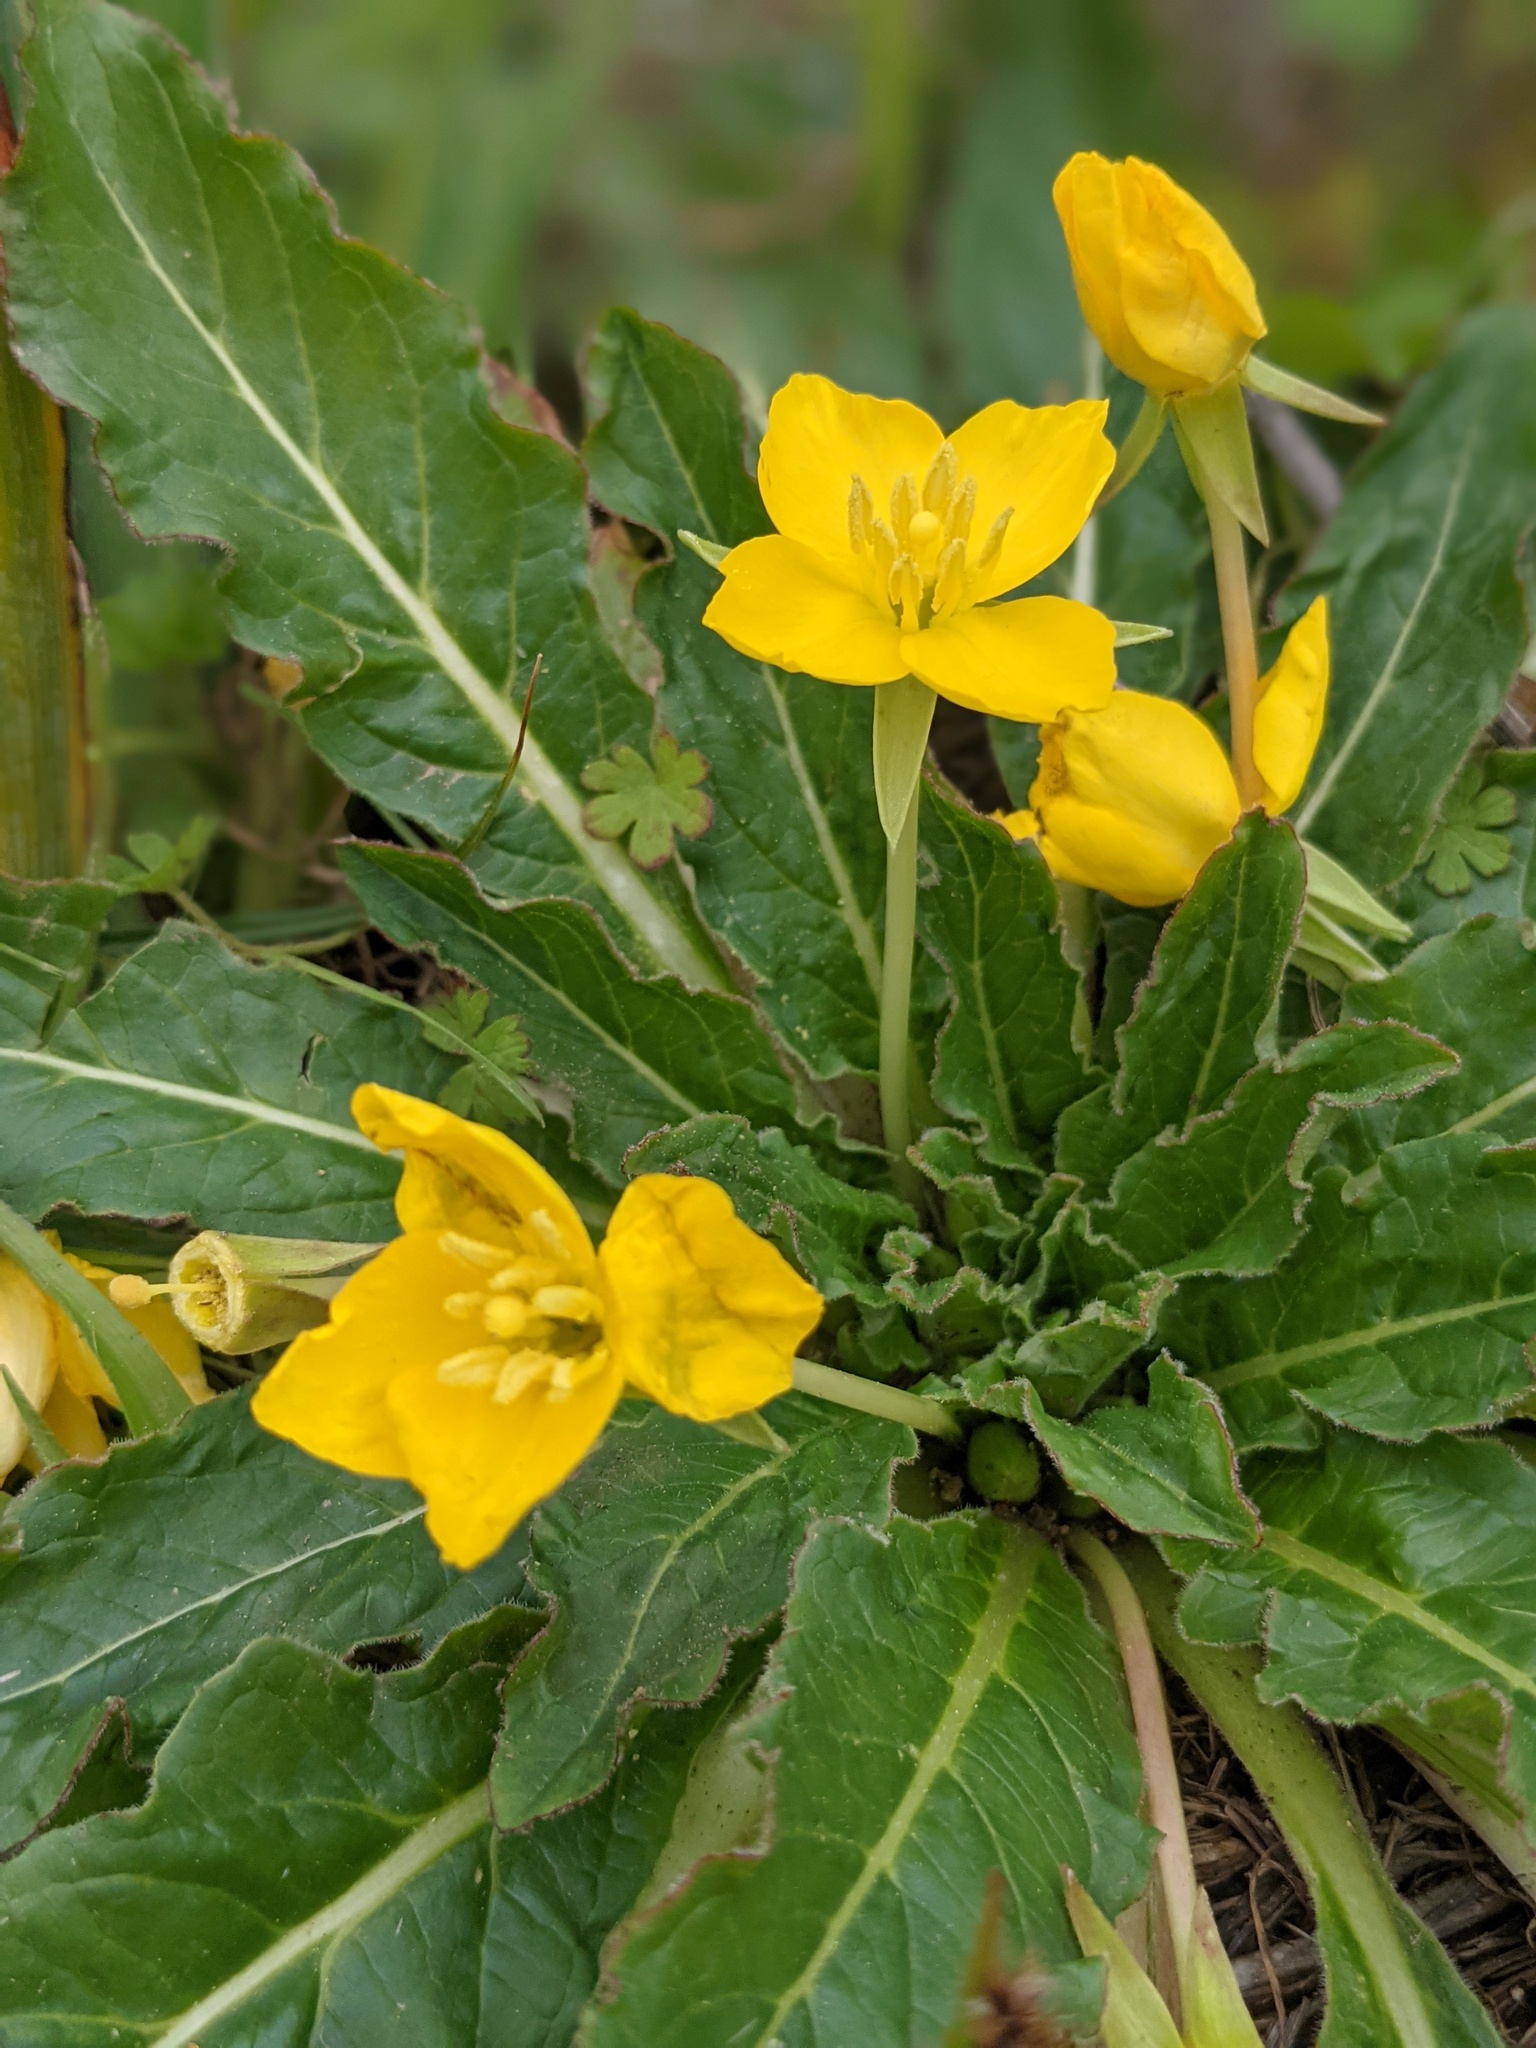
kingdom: Plantae
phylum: Tracheophyta
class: Magnoliopsida
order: Myrtales
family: Onagraceae
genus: Taraxia
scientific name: Taraxia ovata
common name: Goldeneggs
